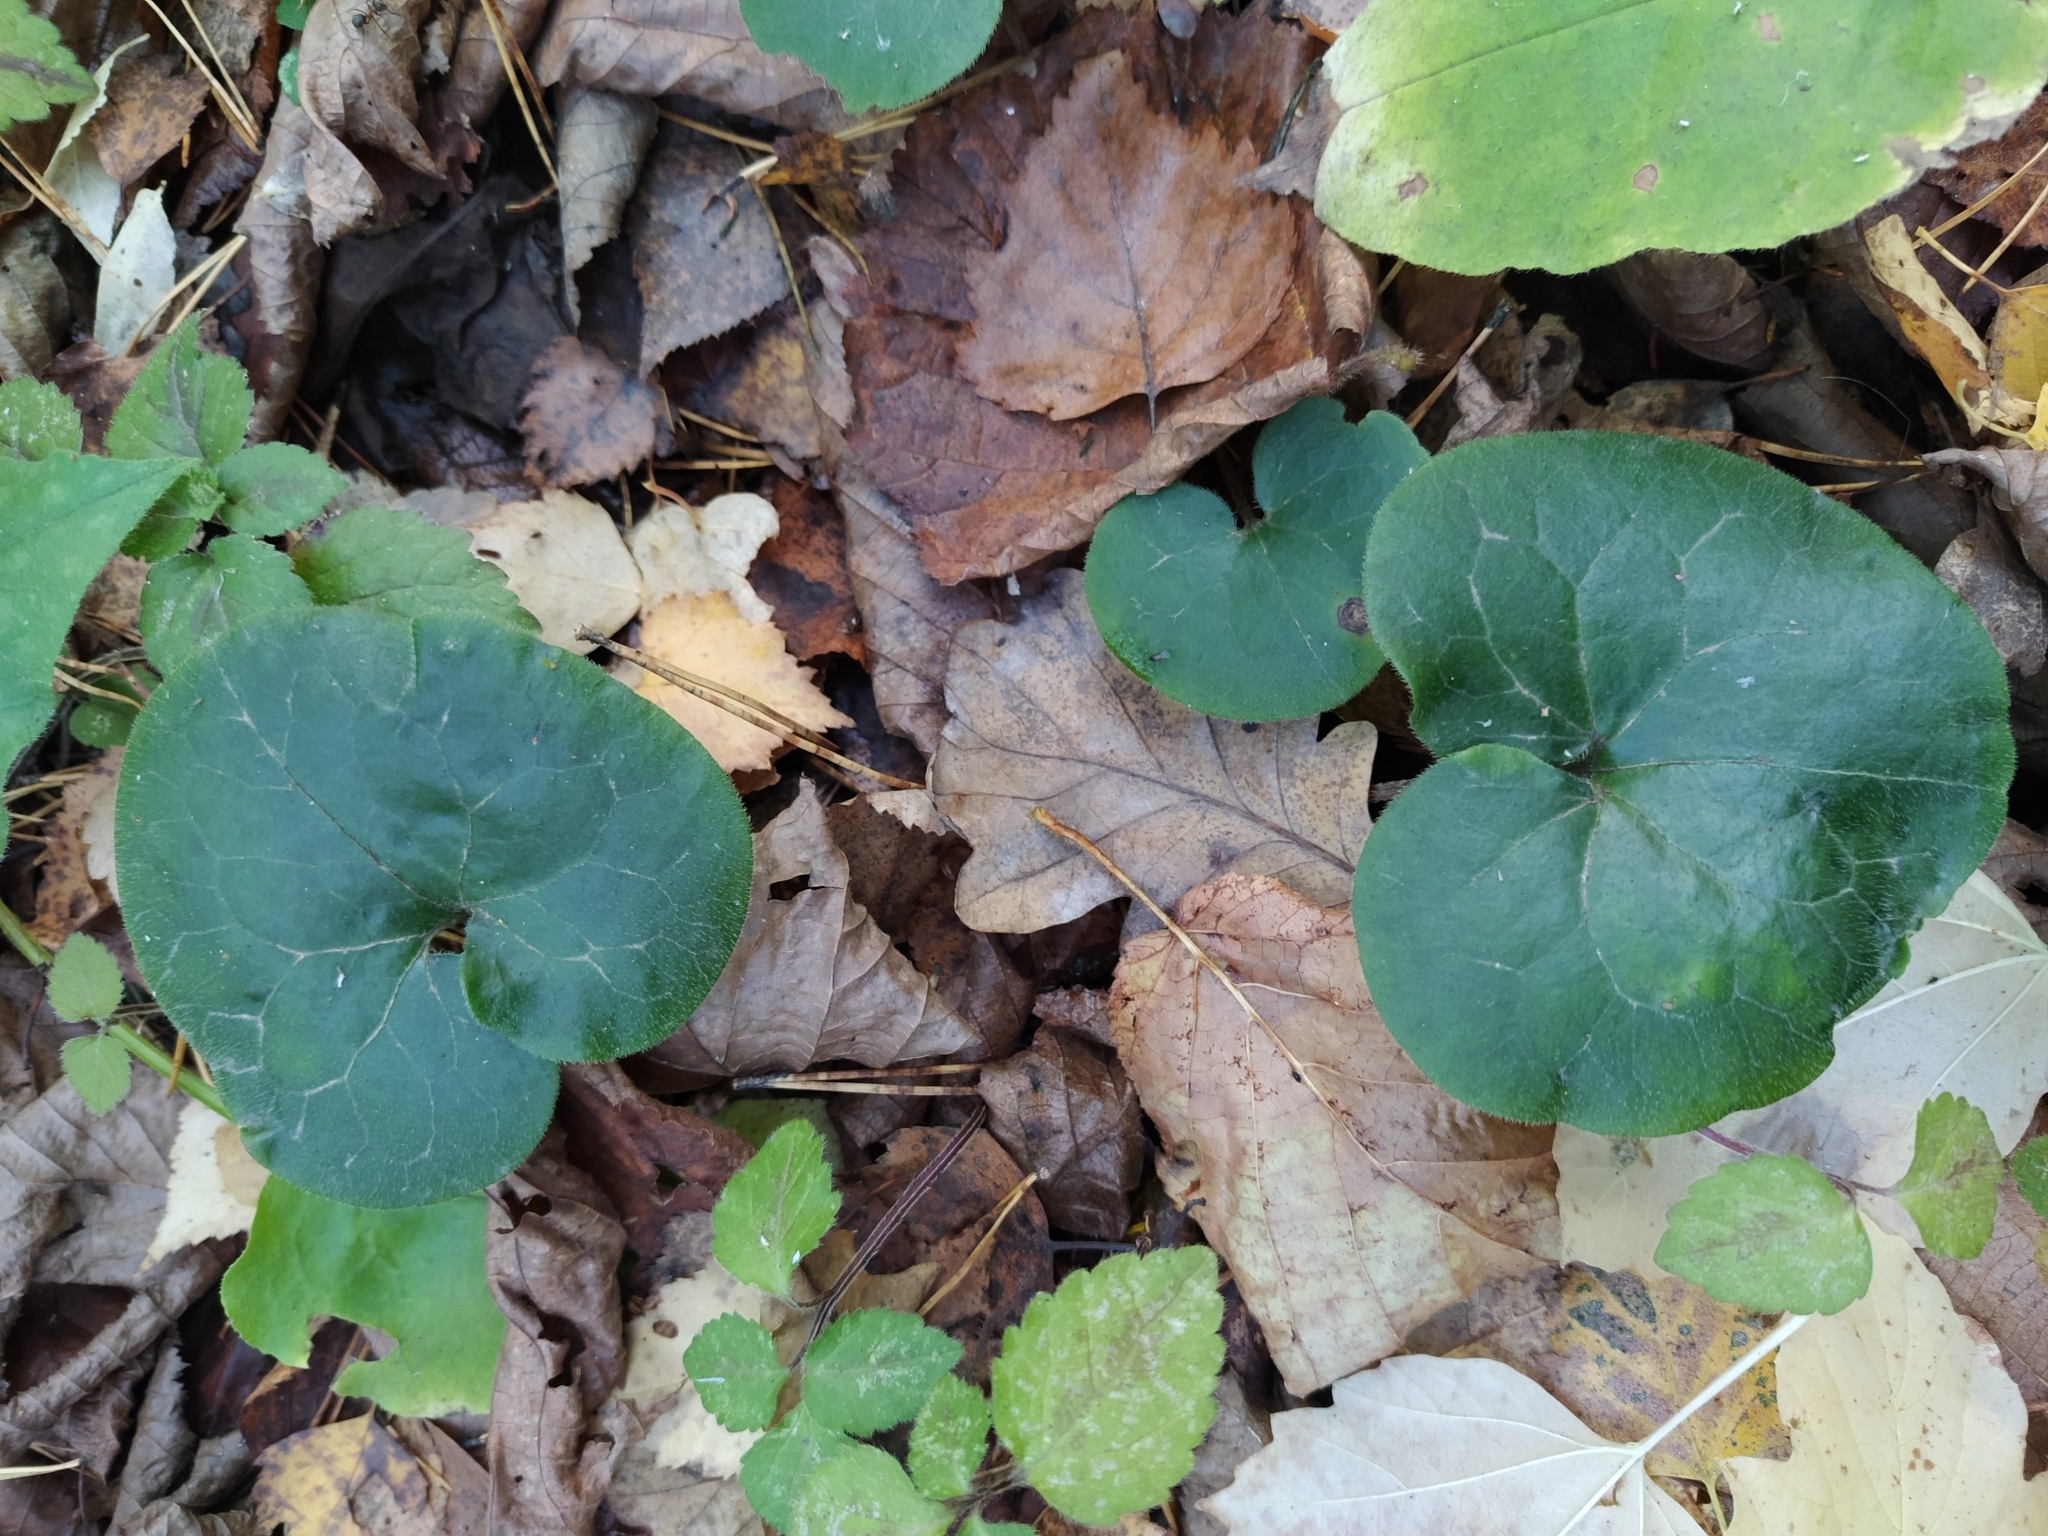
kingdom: Plantae
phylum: Tracheophyta
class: Magnoliopsida
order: Piperales
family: Aristolochiaceae
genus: Asarum
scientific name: Asarum europaeum
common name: Asarabacca
